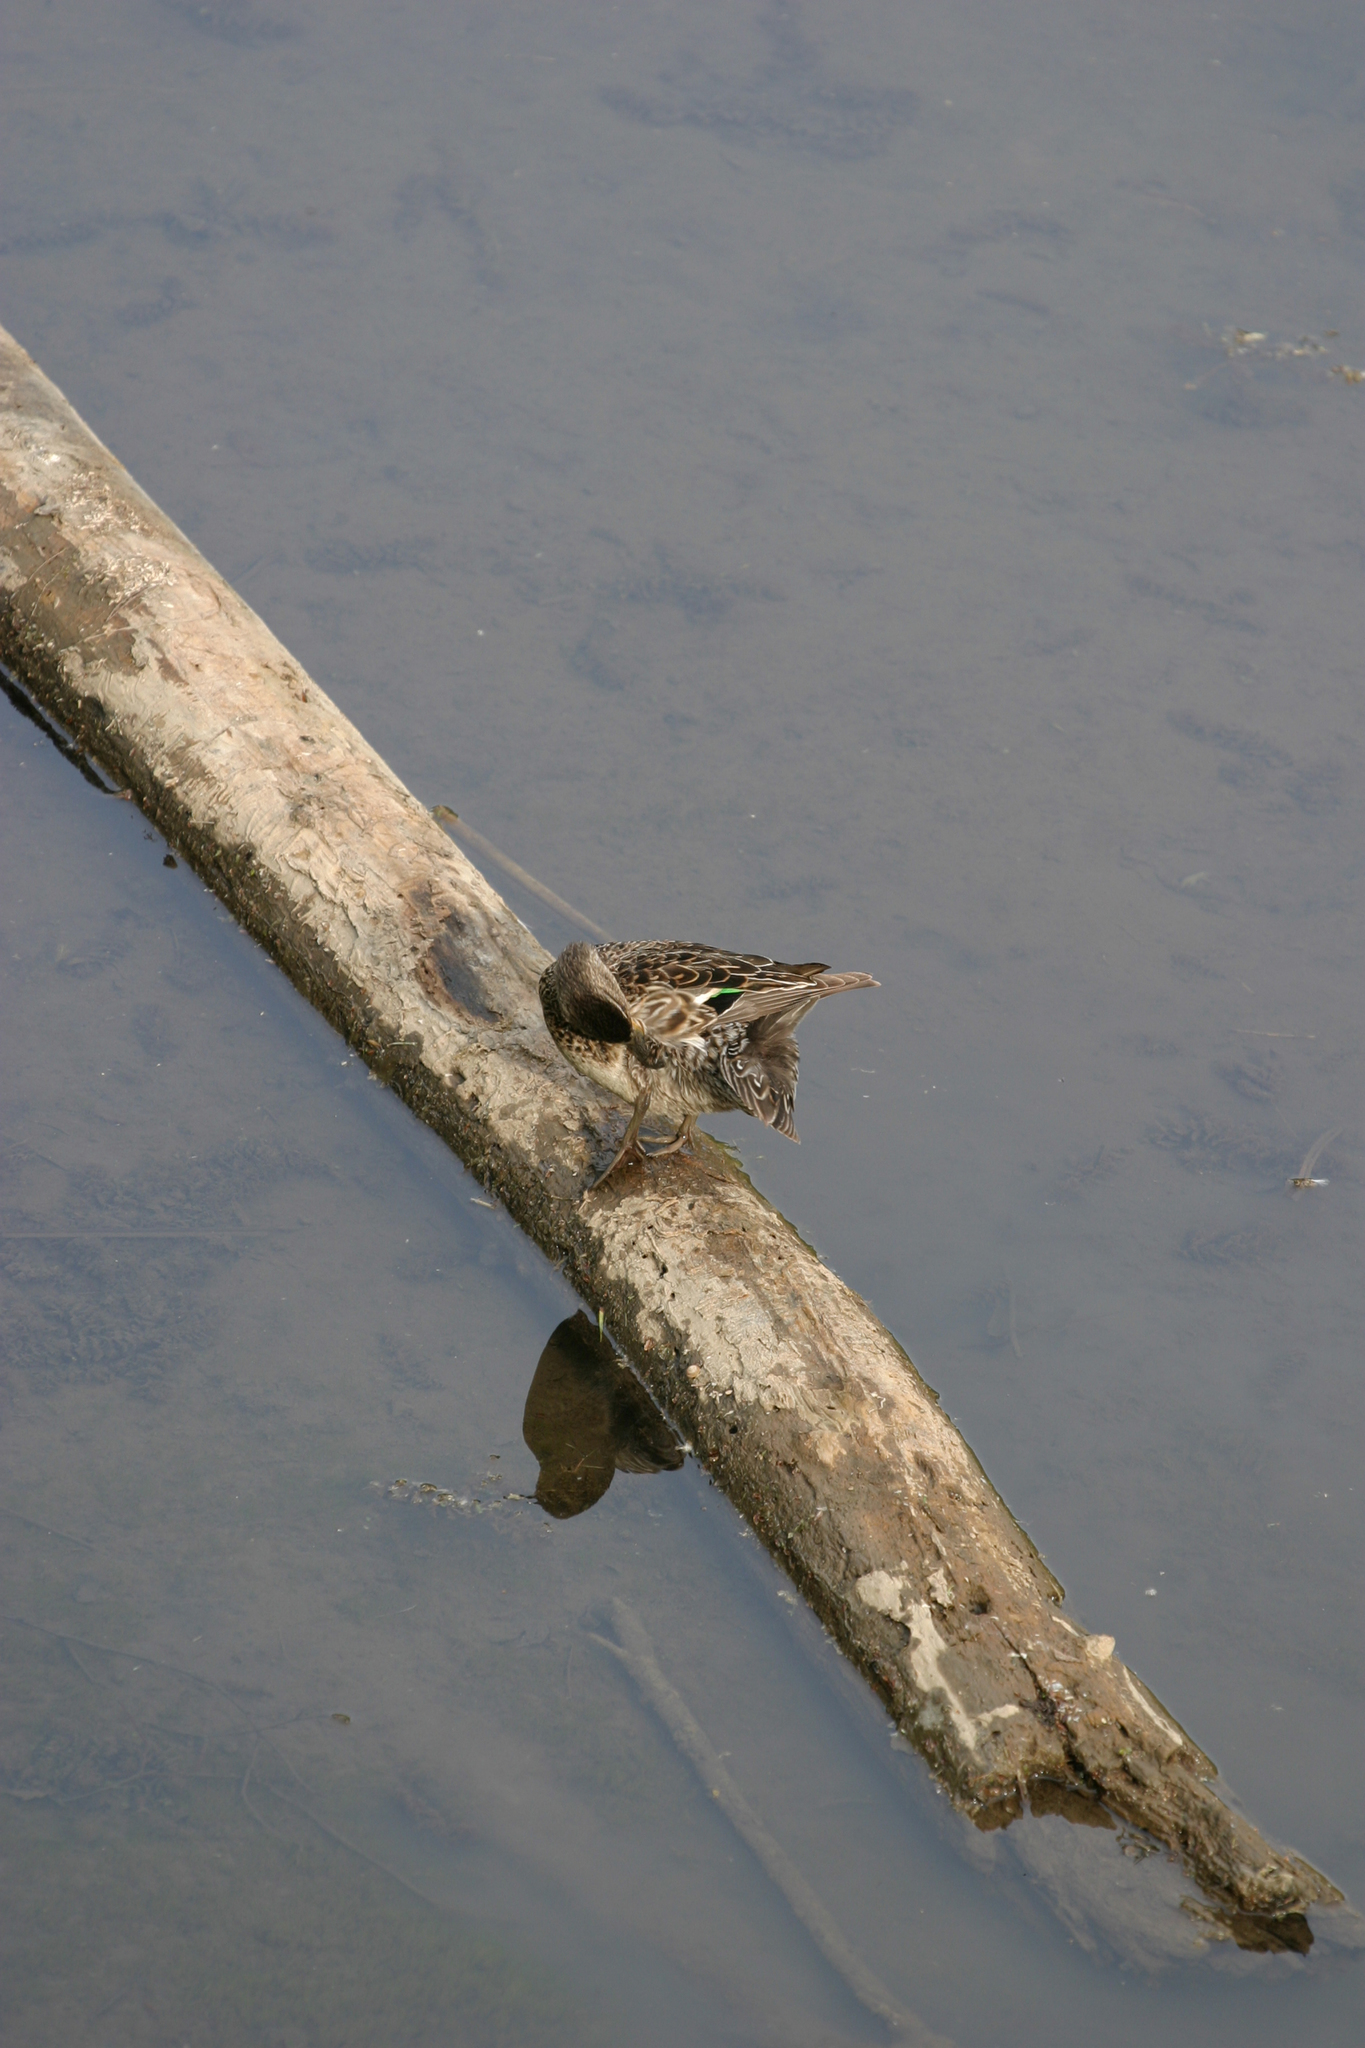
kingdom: Animalia
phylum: Chordata
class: Aves
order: Anseriformes
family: Anatidae
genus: Anas
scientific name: Anas crecca
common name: Eurasian teal
